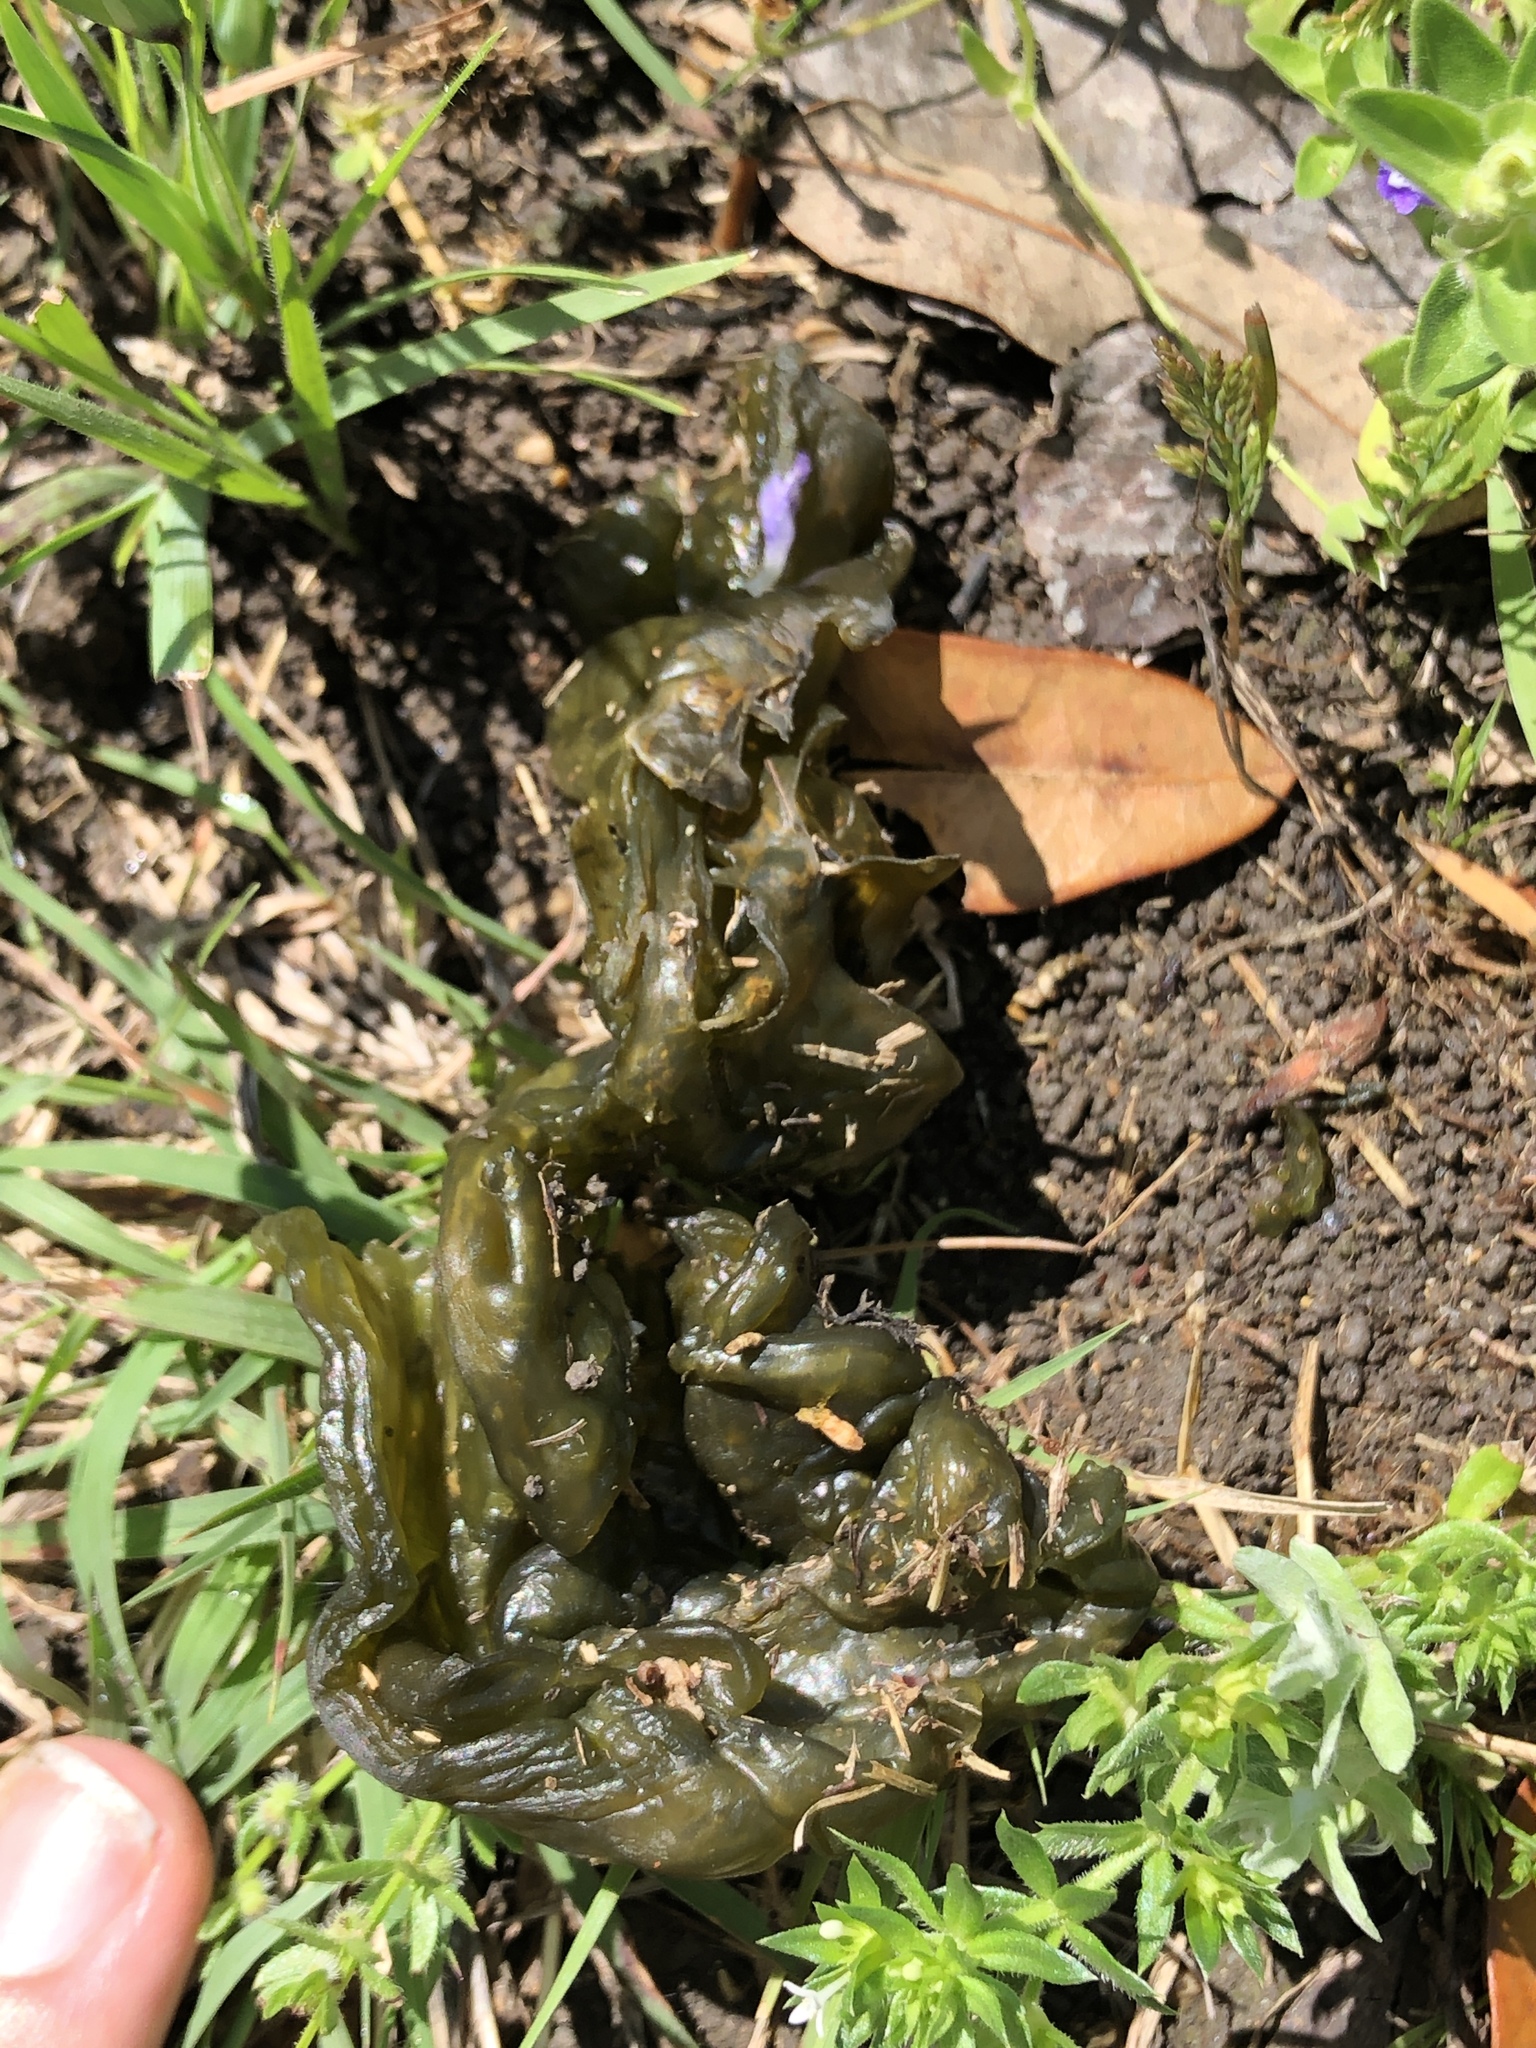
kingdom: Bacteria
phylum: Cyanobacteria
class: Cyanobacteriia
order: Cyanobacteriales
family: Nostocaceae
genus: Nostoc
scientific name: Nostoc commune
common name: Star jelly
